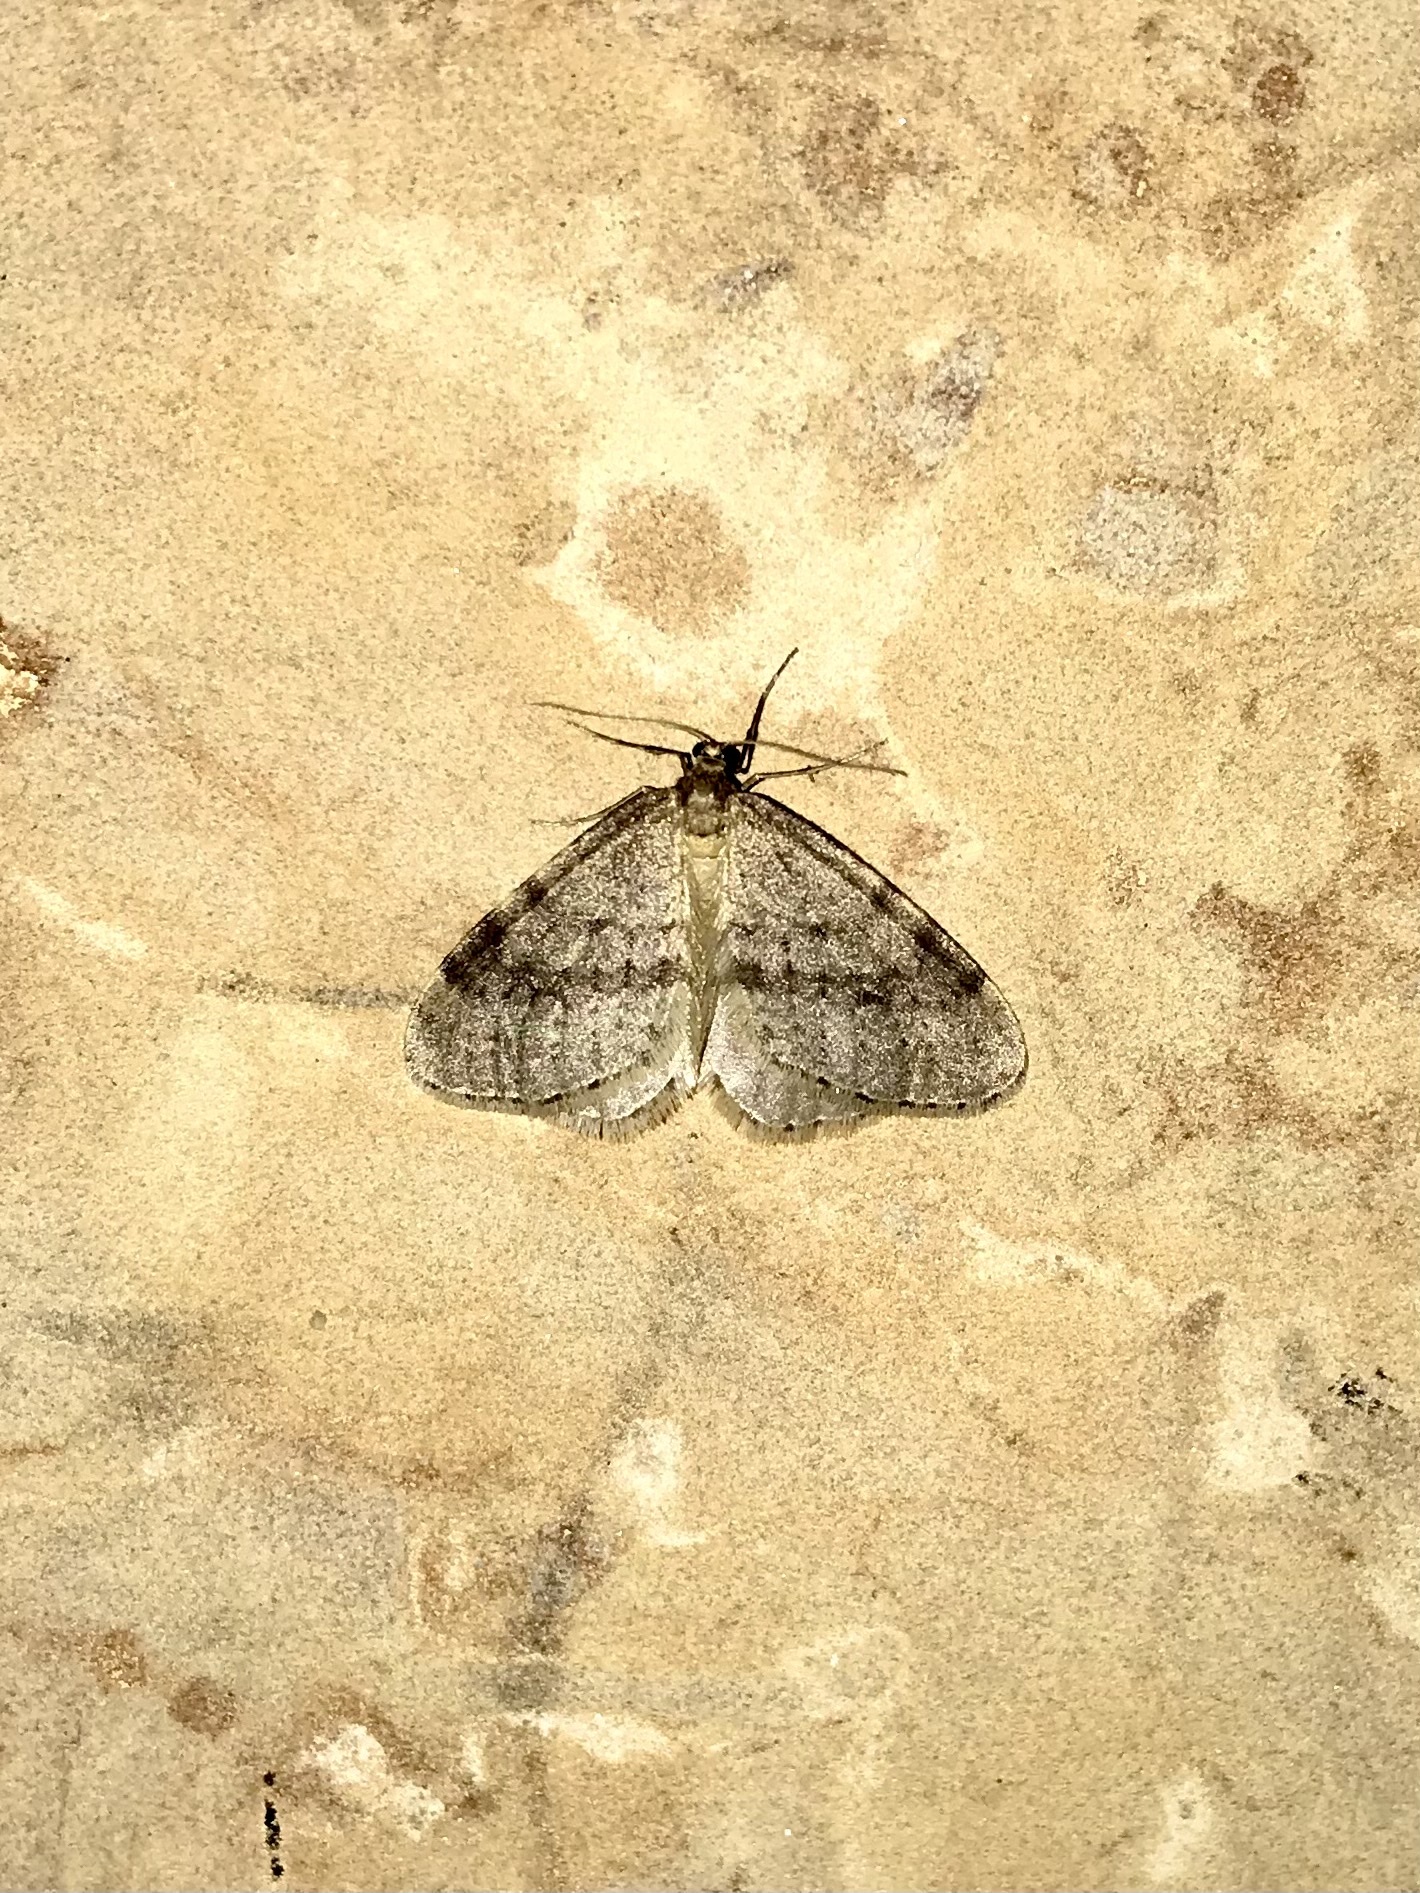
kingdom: Animalia
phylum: Arthropoda
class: Insecta
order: Lepidoptera
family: Geometridae
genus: Operophtera
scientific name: Operophtera bruceata
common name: Bruce spanworm
